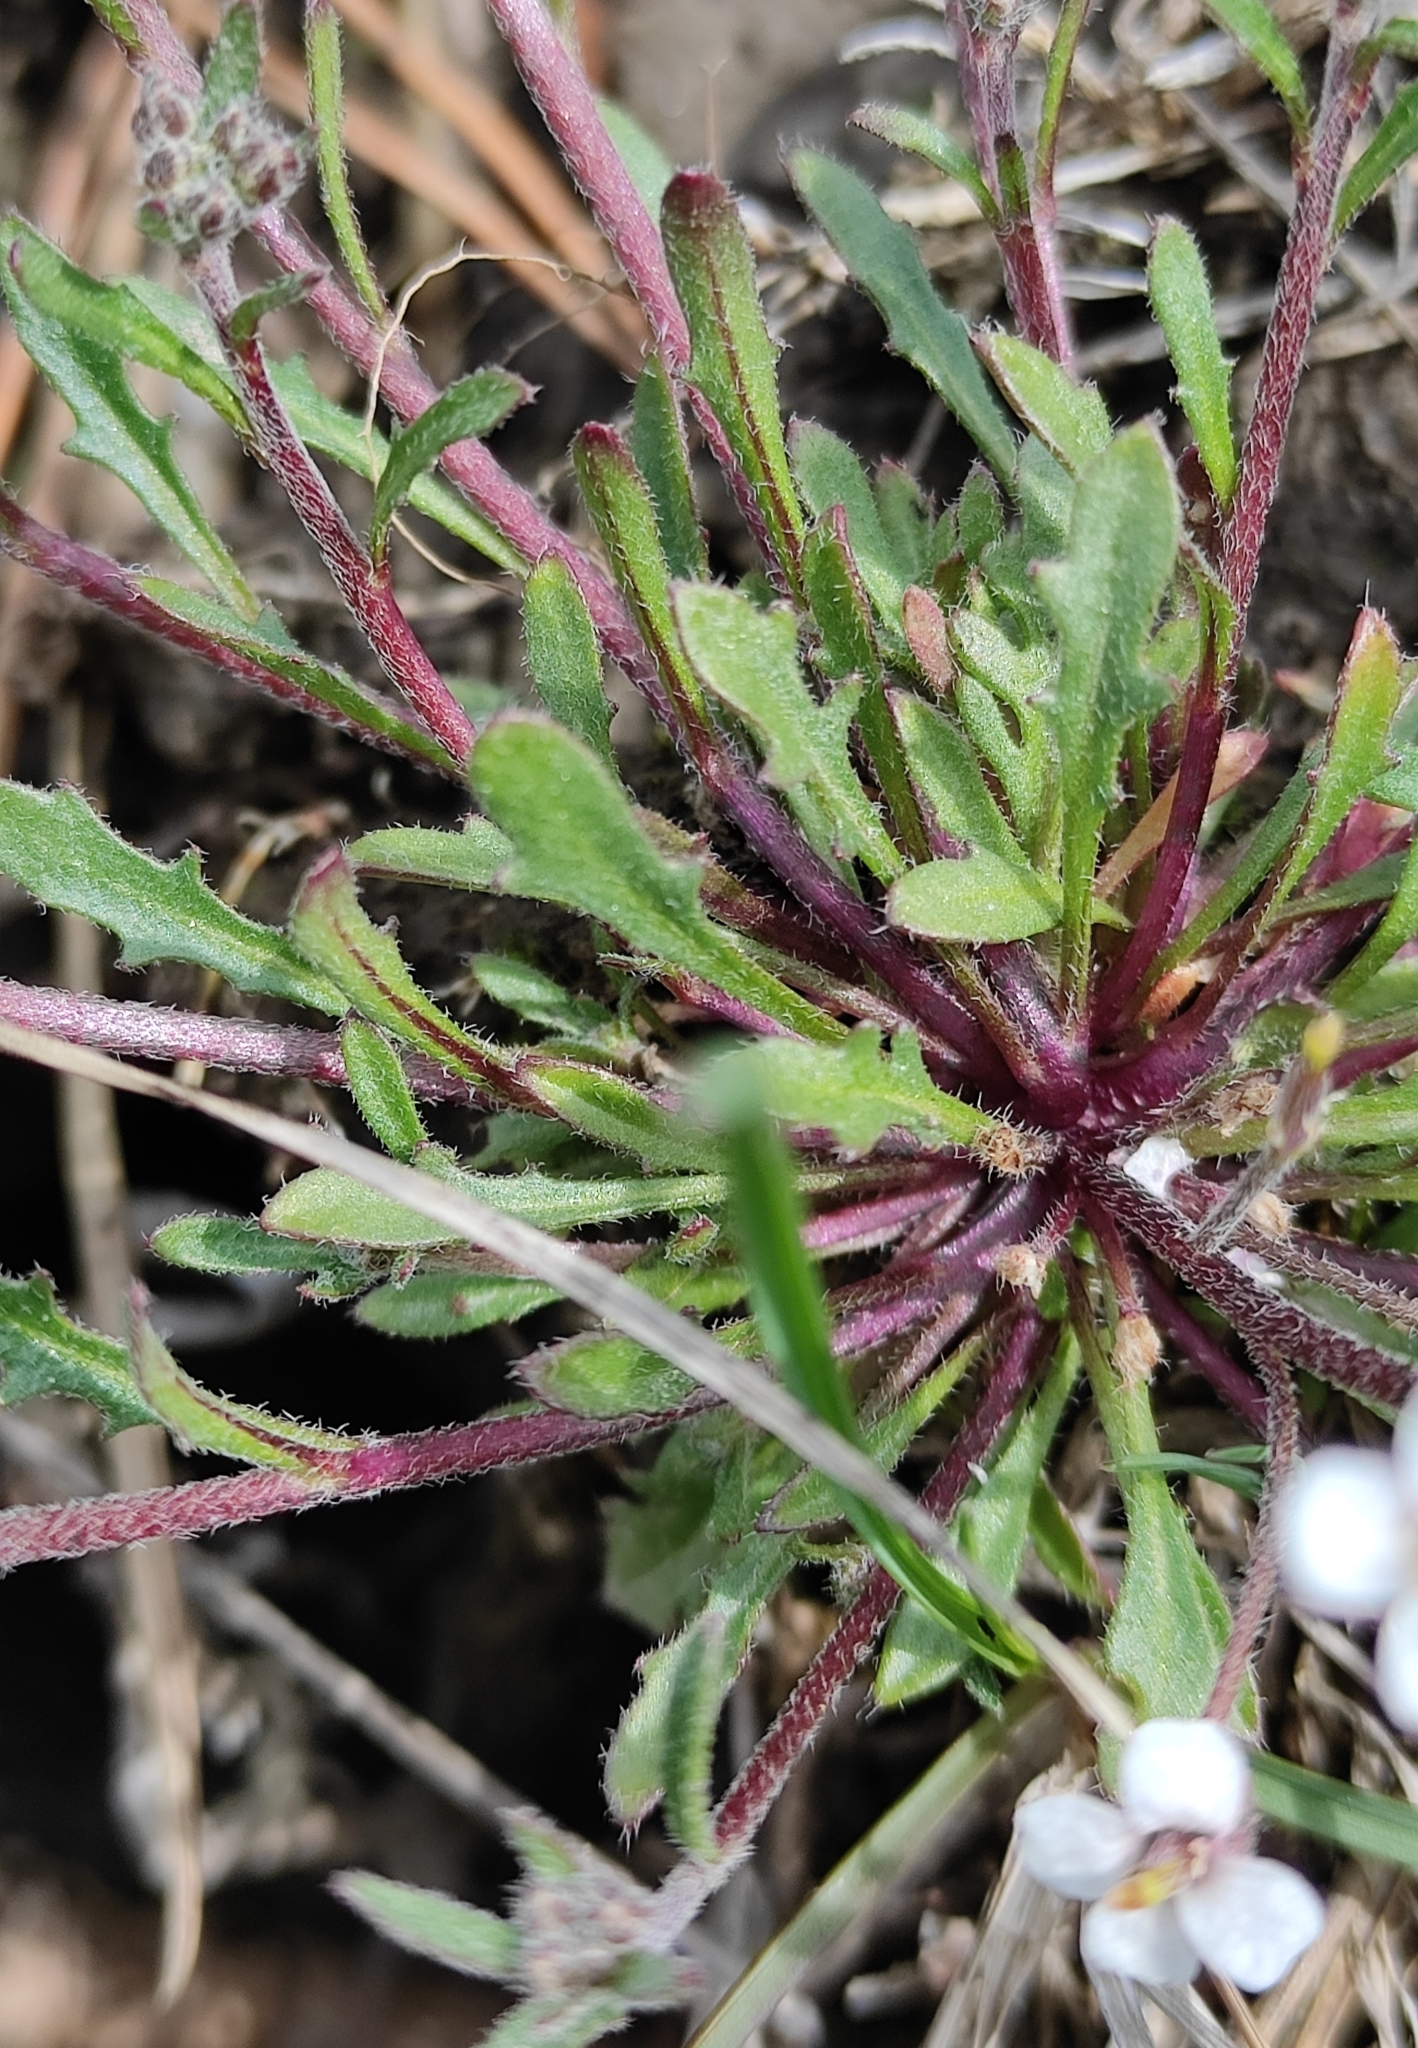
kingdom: Plantae
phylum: Tracheophyta
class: Magnoliopsida
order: Brassicales
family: Brassicaceae
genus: Braya
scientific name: Braya humilis
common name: Alpine northern rockcress
